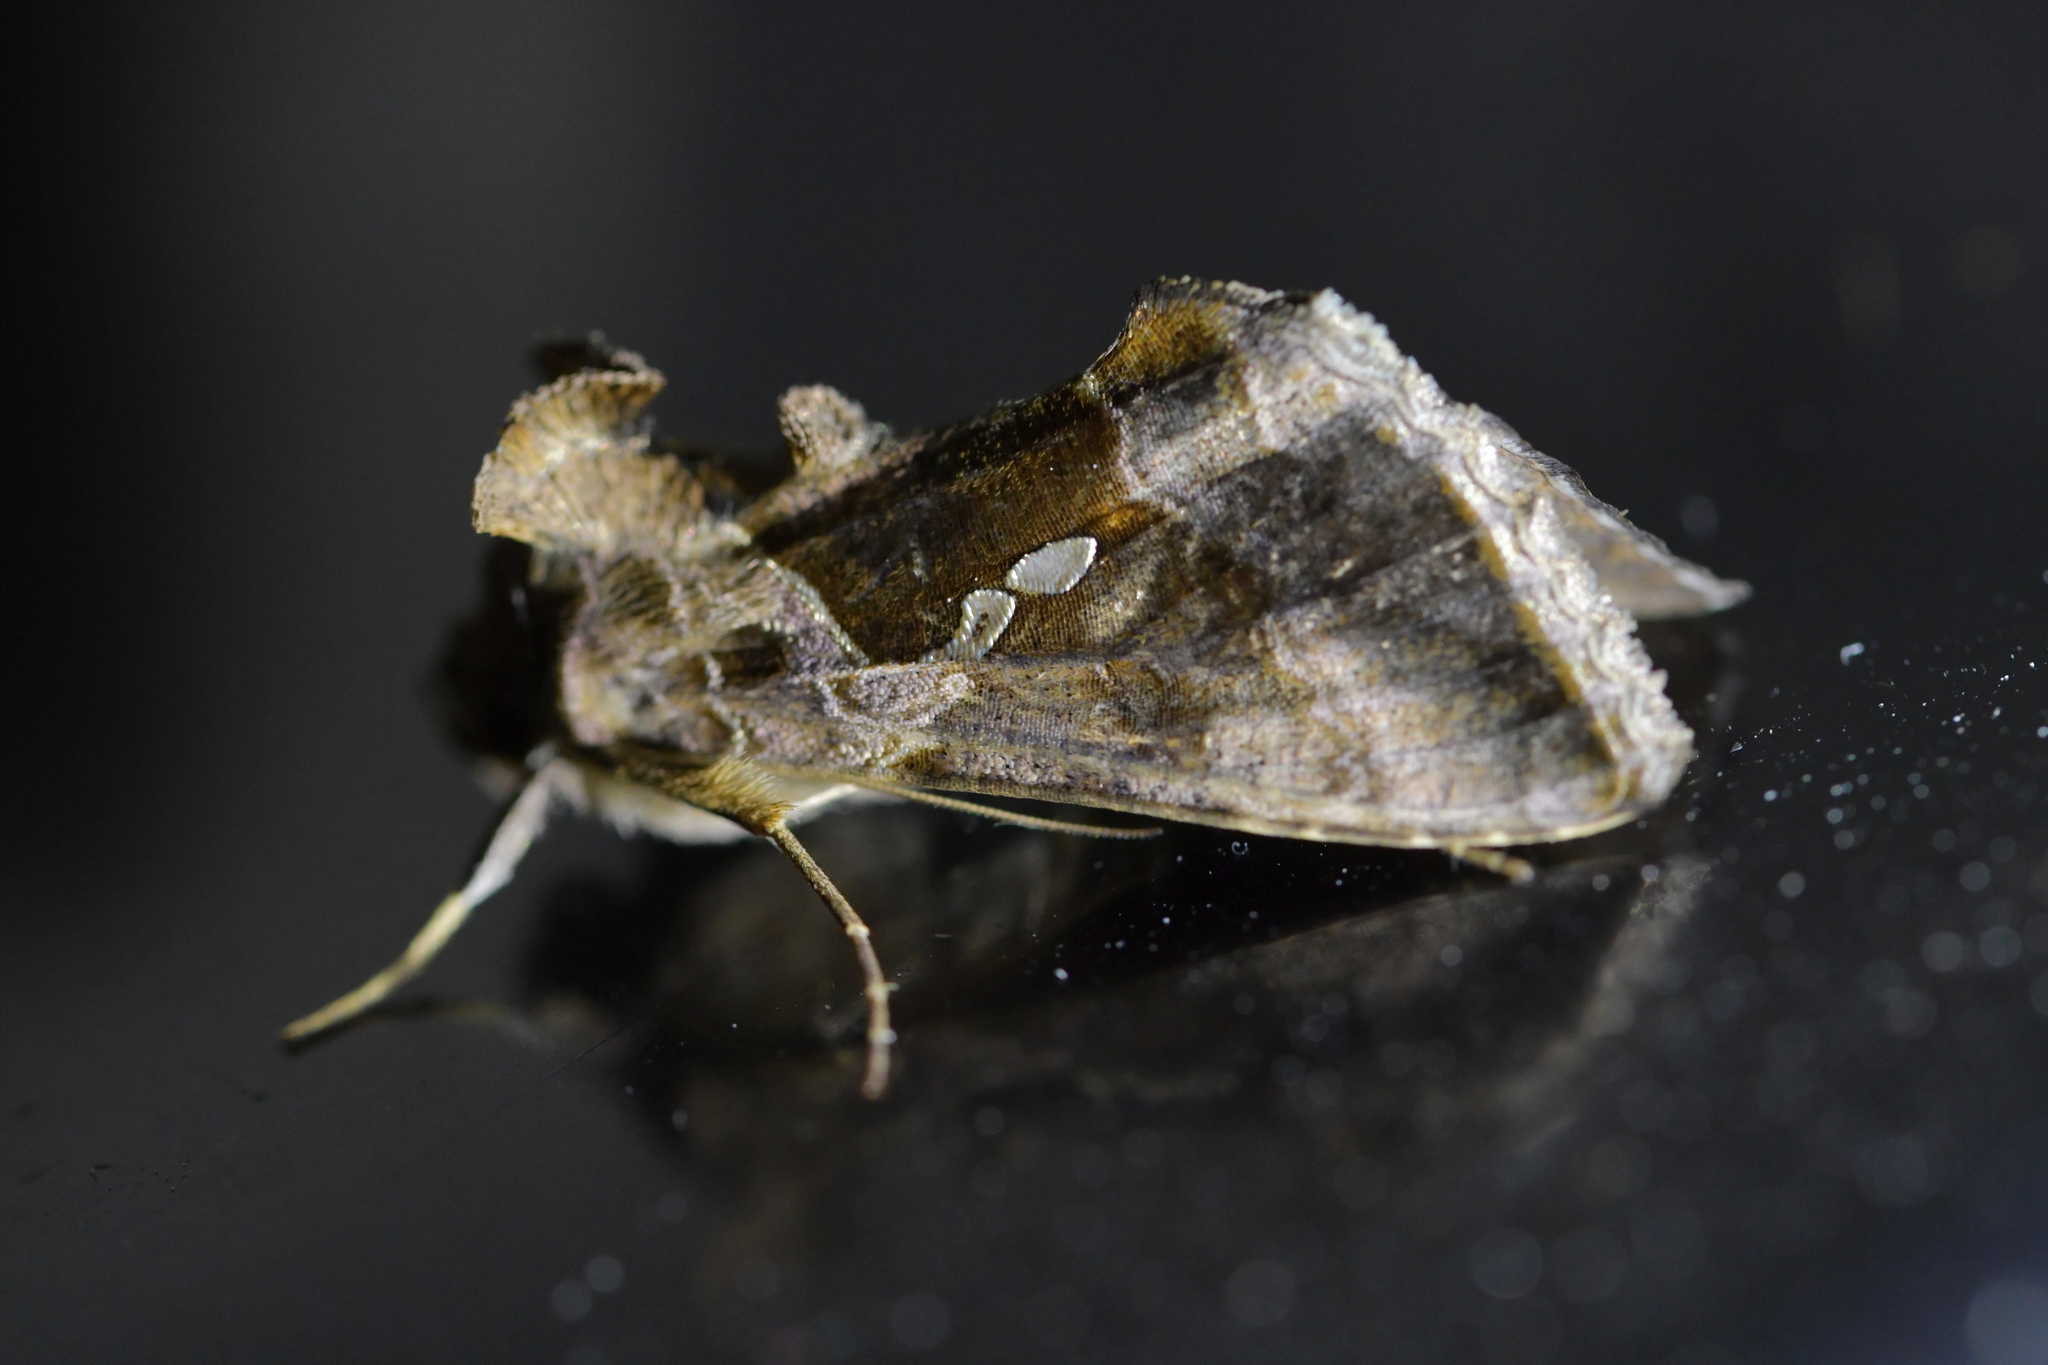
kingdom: Animalia
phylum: Arthropoda
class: Insecta
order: Lepidoptera
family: Noctuidae
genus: Chrysodeixis
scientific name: Chrysodeixis eriosoma
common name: Green garden looper
